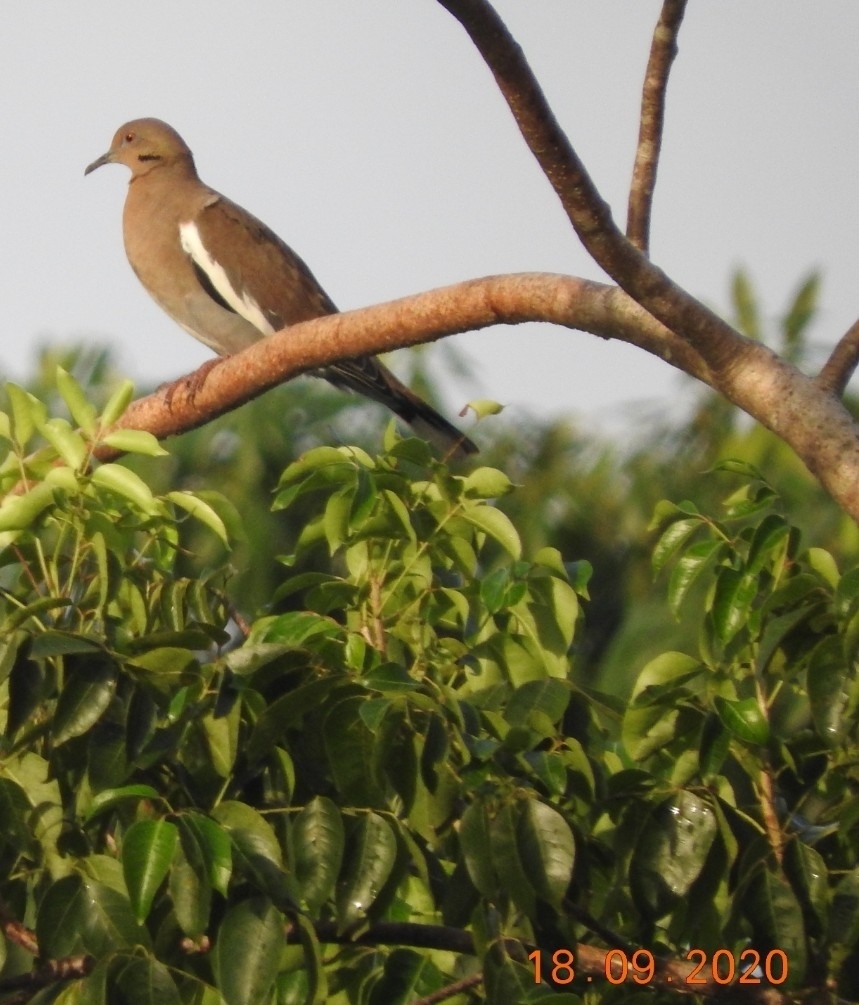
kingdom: Animalia
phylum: Chordata
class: Aves
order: Columbiformes
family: Columbidae
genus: Zenaida
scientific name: Zenaida asiatica
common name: White-winged dove
